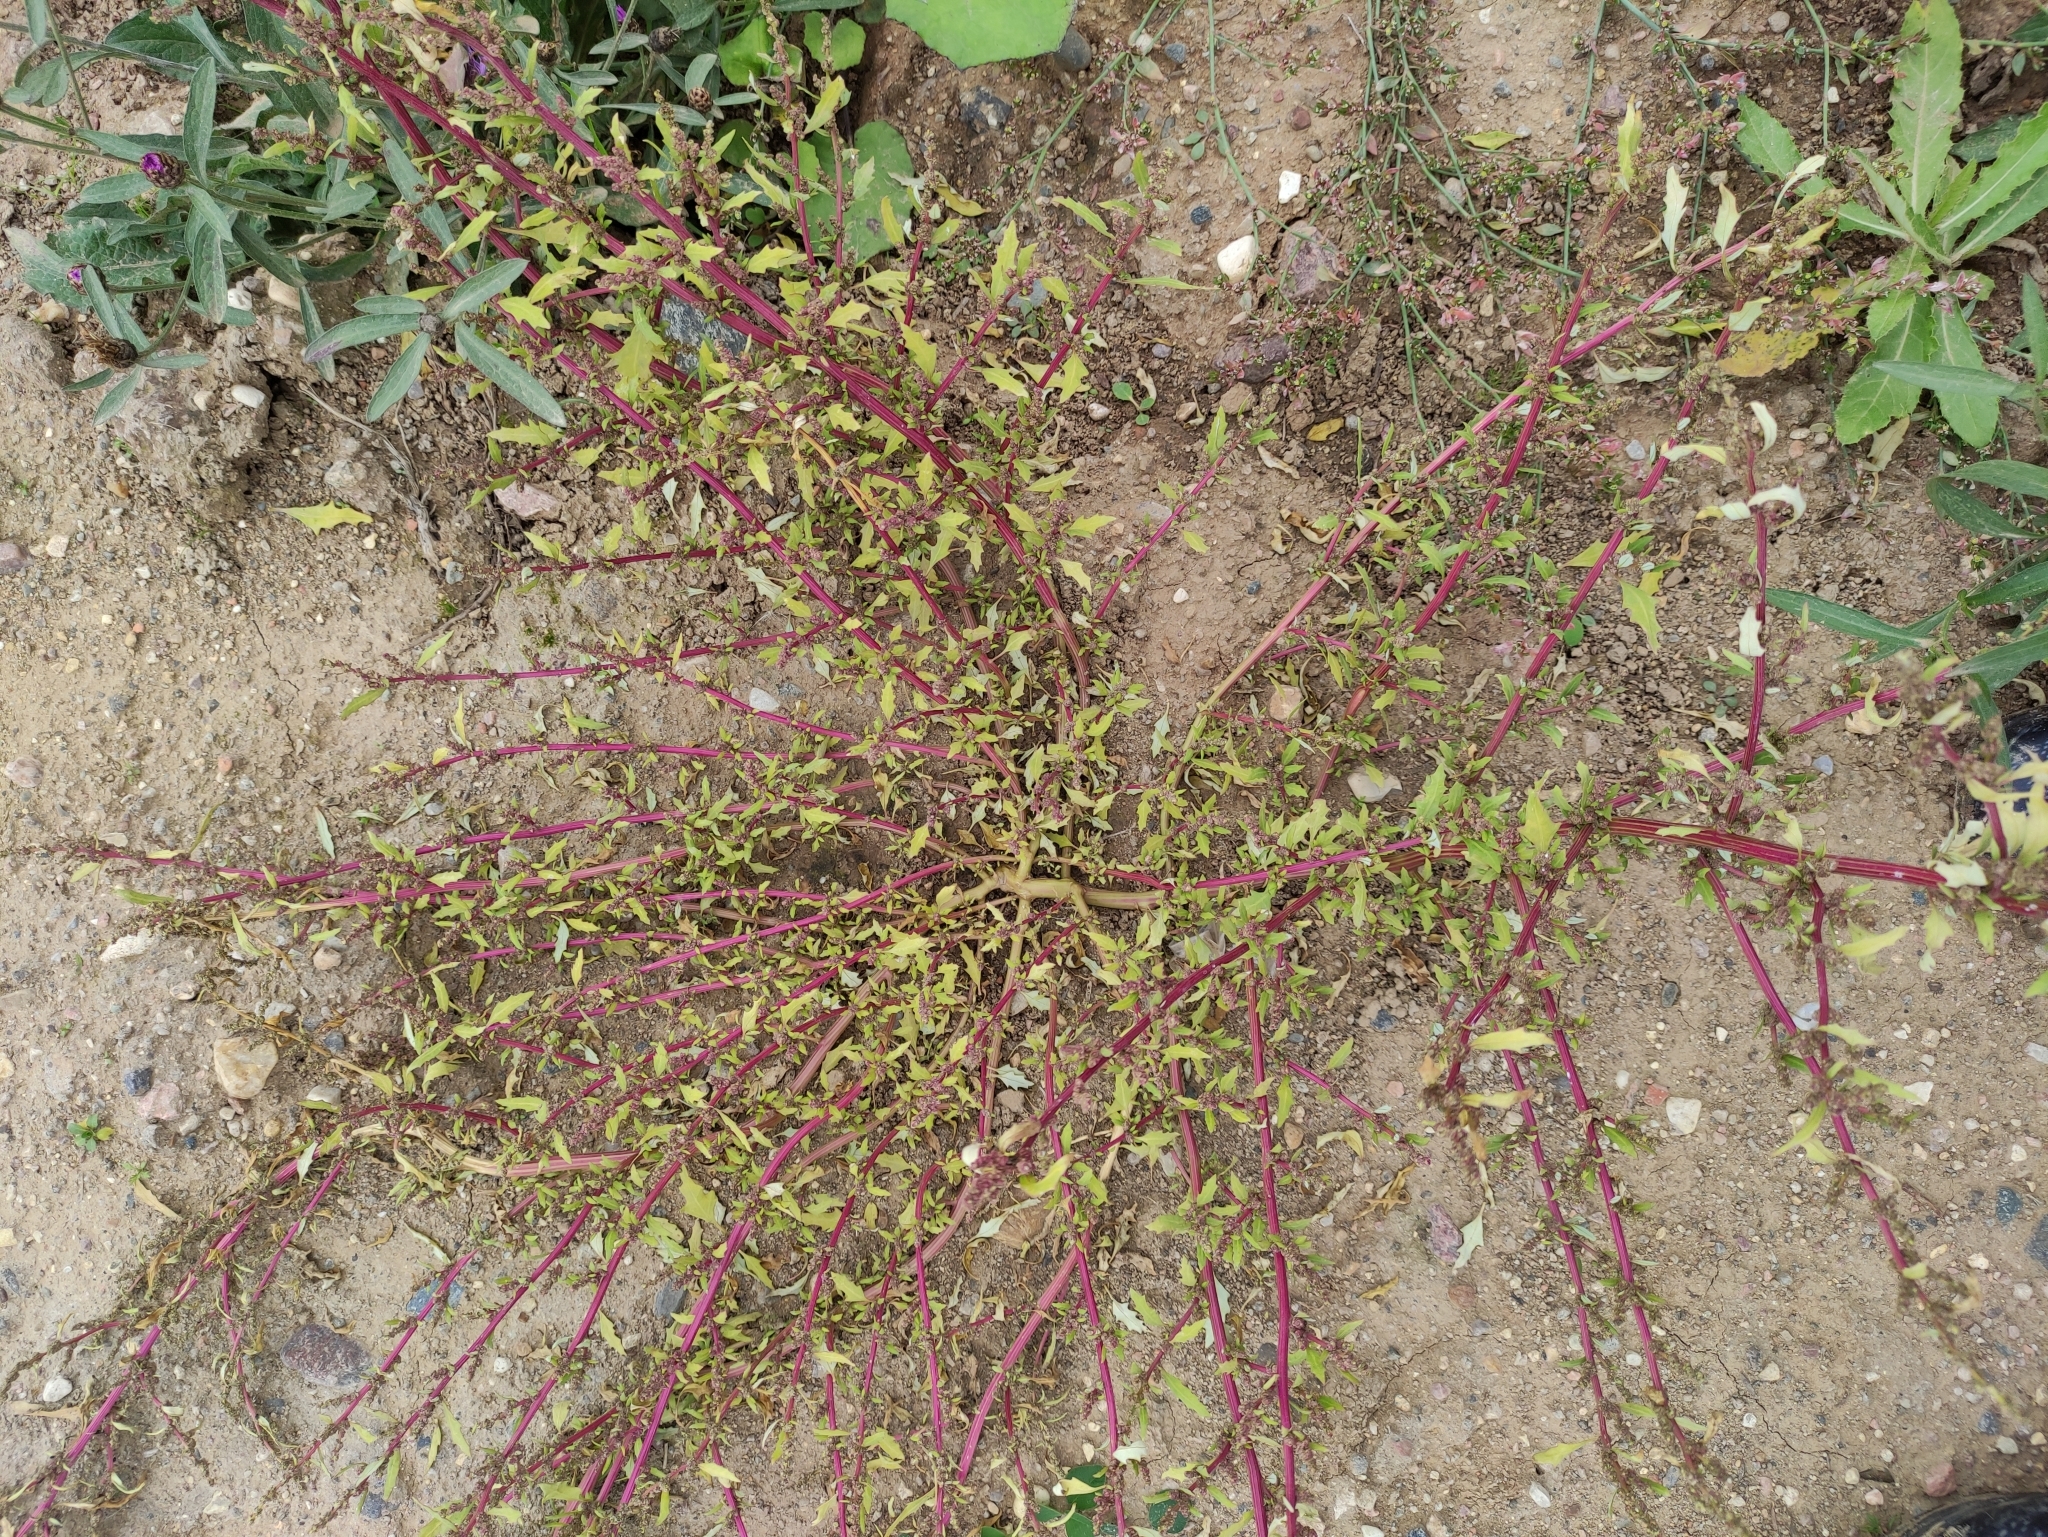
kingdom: Plantae
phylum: Tracheophyta
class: Magnoliopsida
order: Caryophyllales
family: Amaranthaceae
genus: Oxybasis
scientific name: Oxybasis glauca
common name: Glaucous goosefoot
